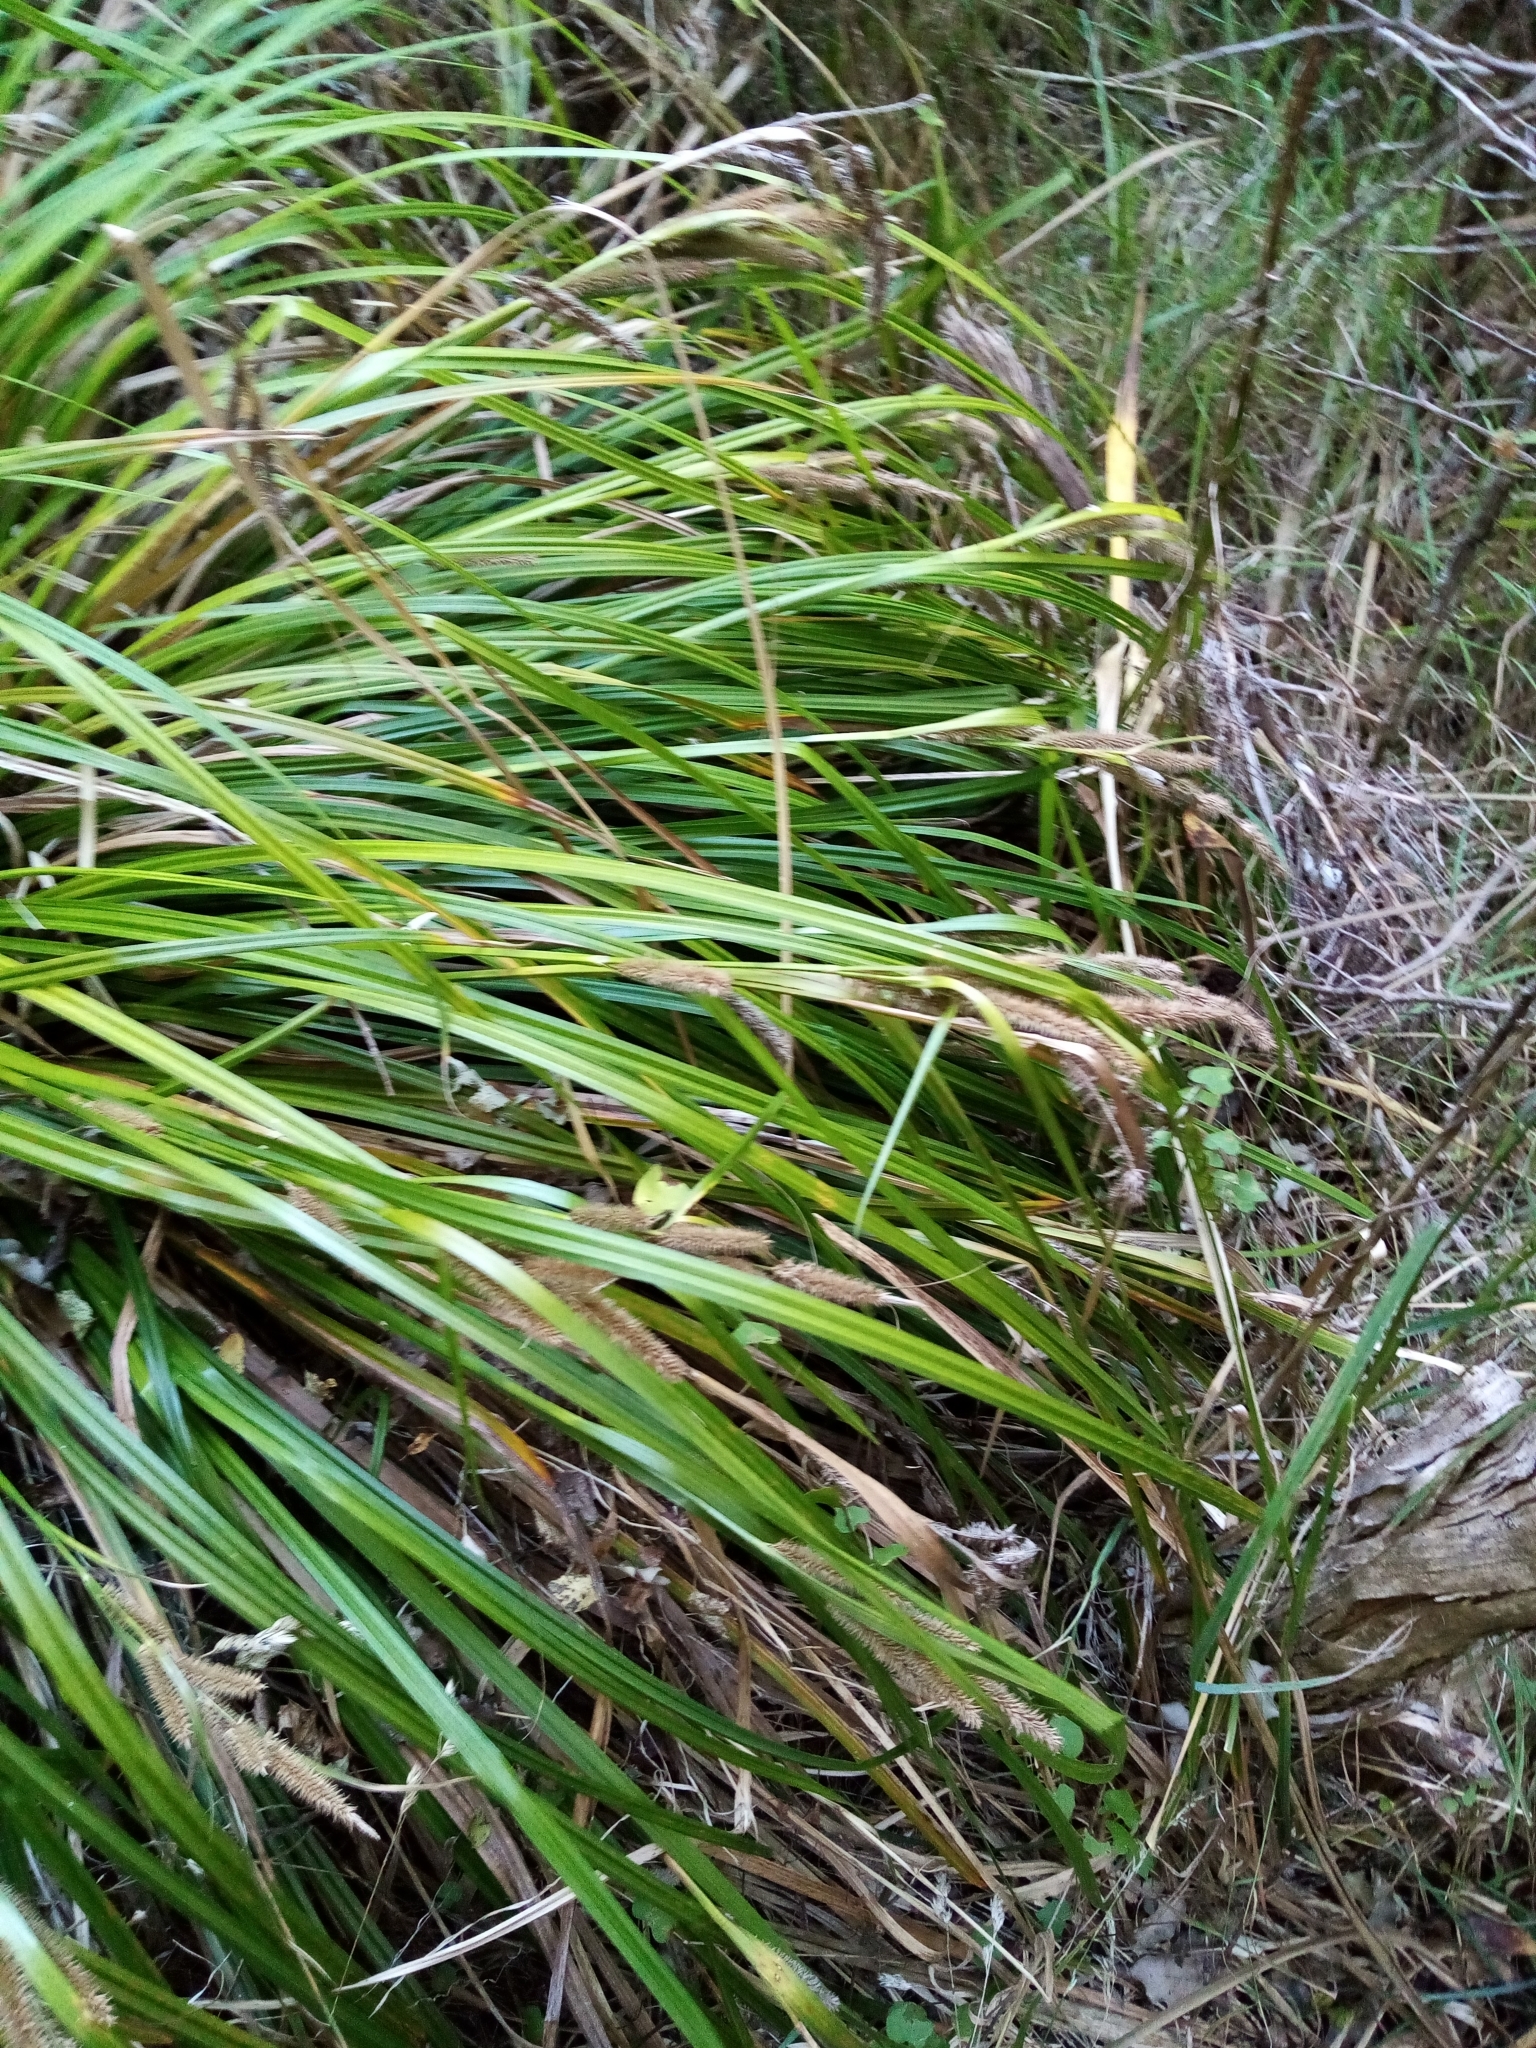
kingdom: Plantae
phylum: Tracheophyta
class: Liliopsida
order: Poales
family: Cyperaceae
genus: Carex
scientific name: Carex forsteri
